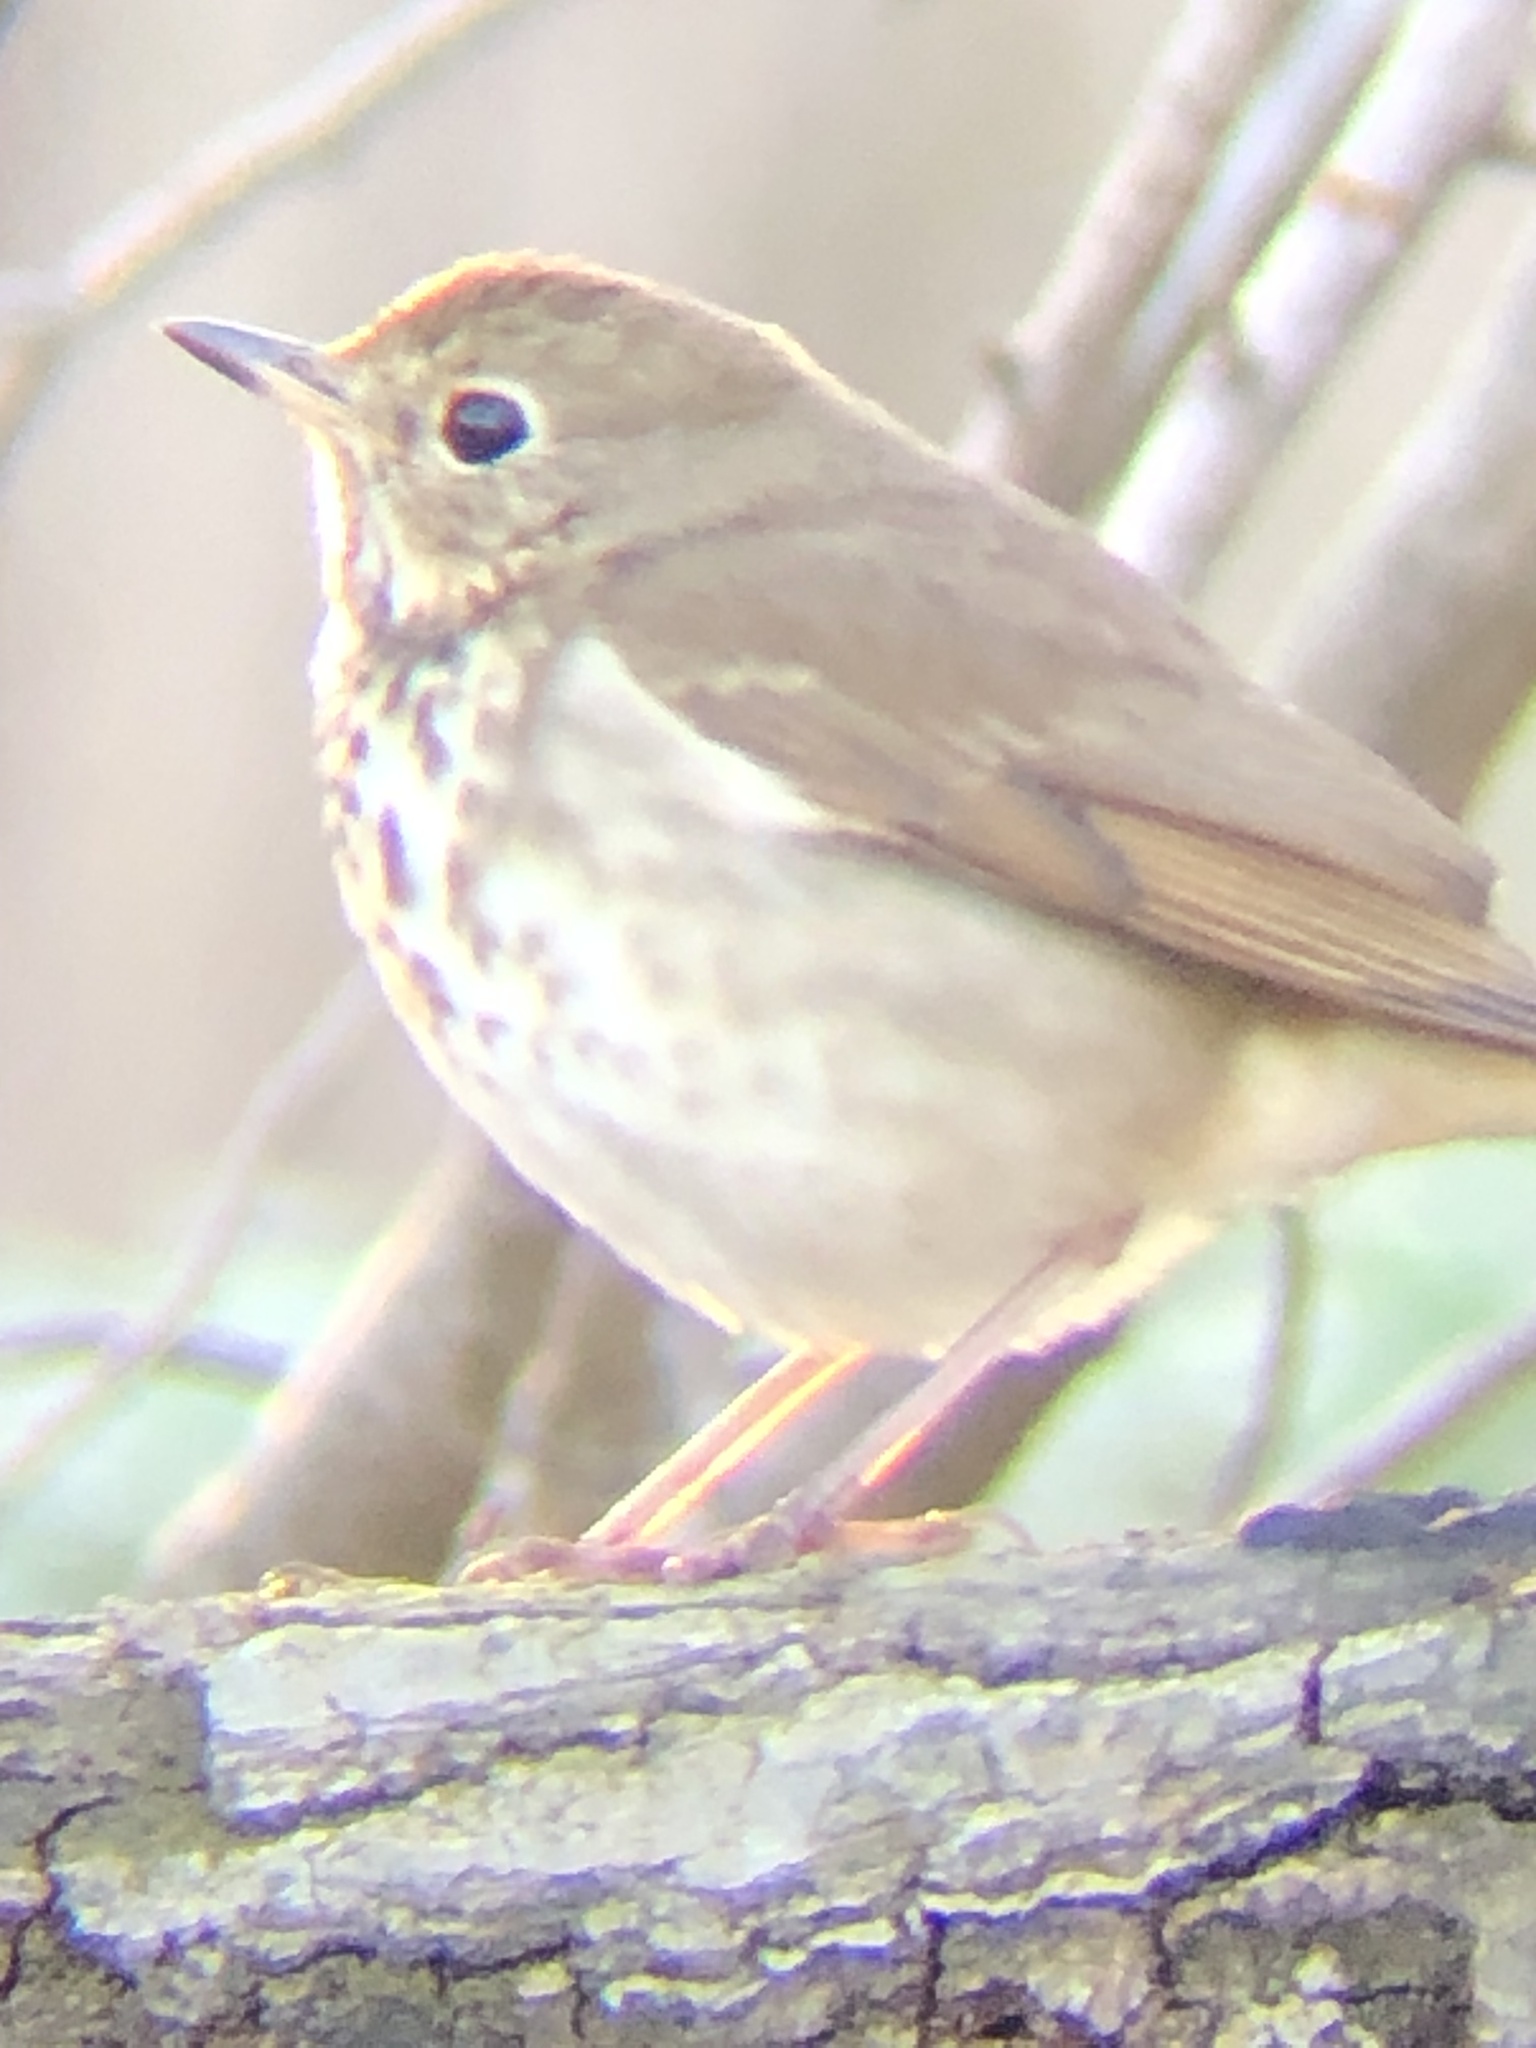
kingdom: Animalia
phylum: Chordata
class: Aves
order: Passeriformes
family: Turdidae
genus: Catharus
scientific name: Catharus guttatus
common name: Hermit thrush
